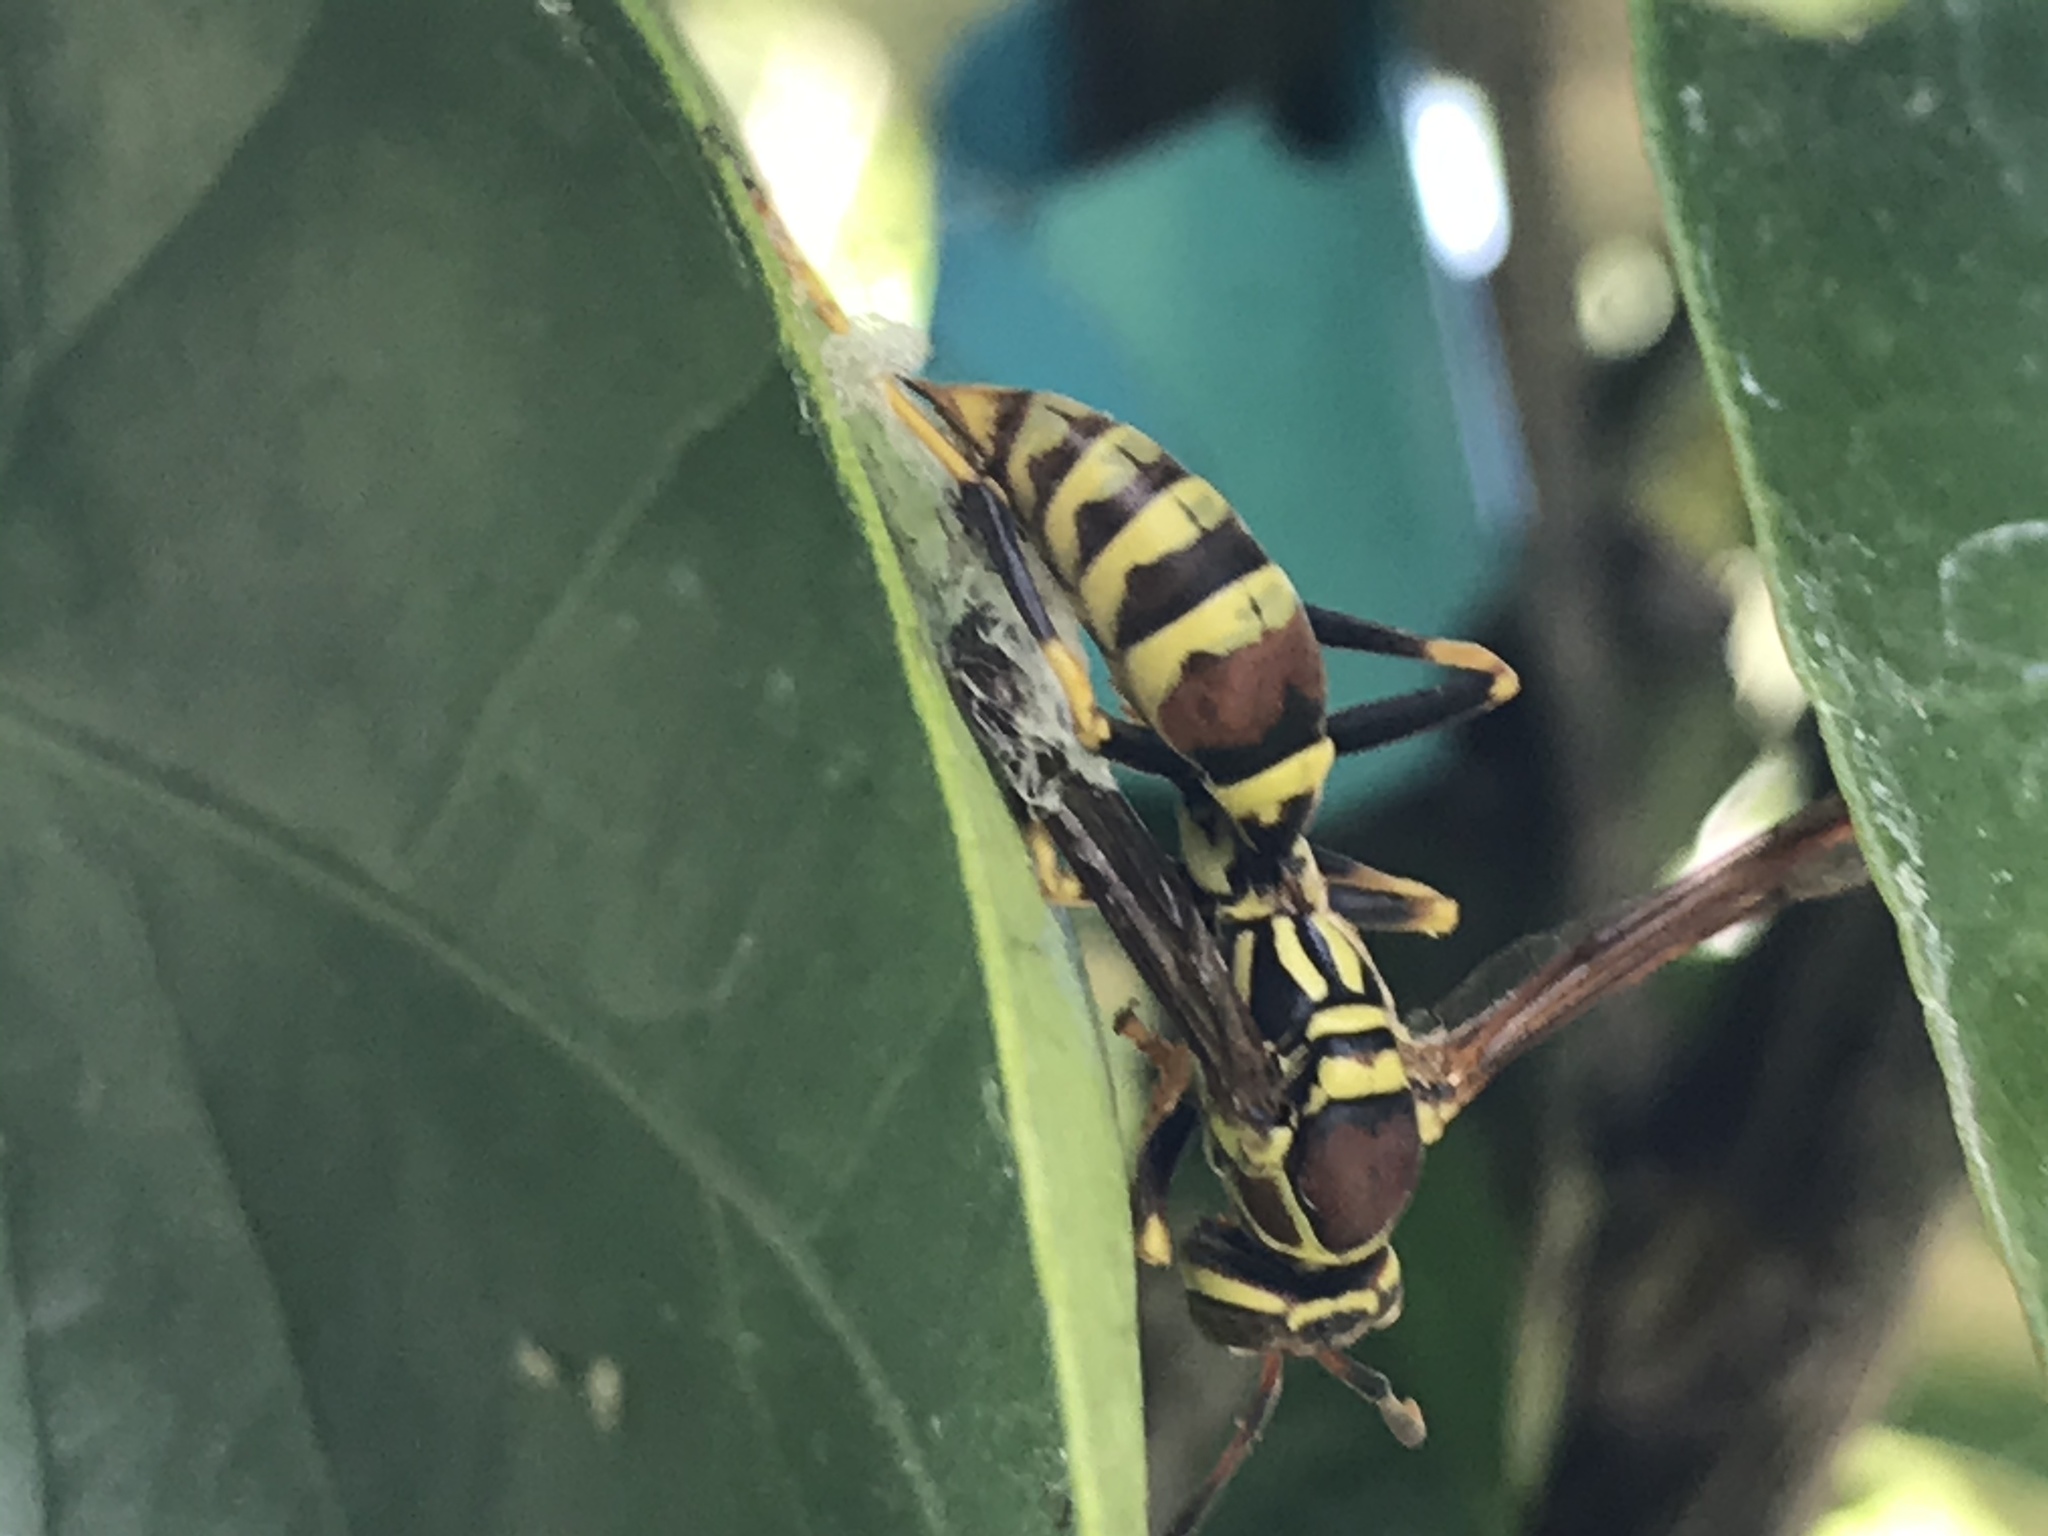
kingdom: Animalia
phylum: Arthropoda
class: Insecta
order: Hymenoptera
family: Eumenidae
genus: Polistes
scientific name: Polistes exclamans
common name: Paper wasp
